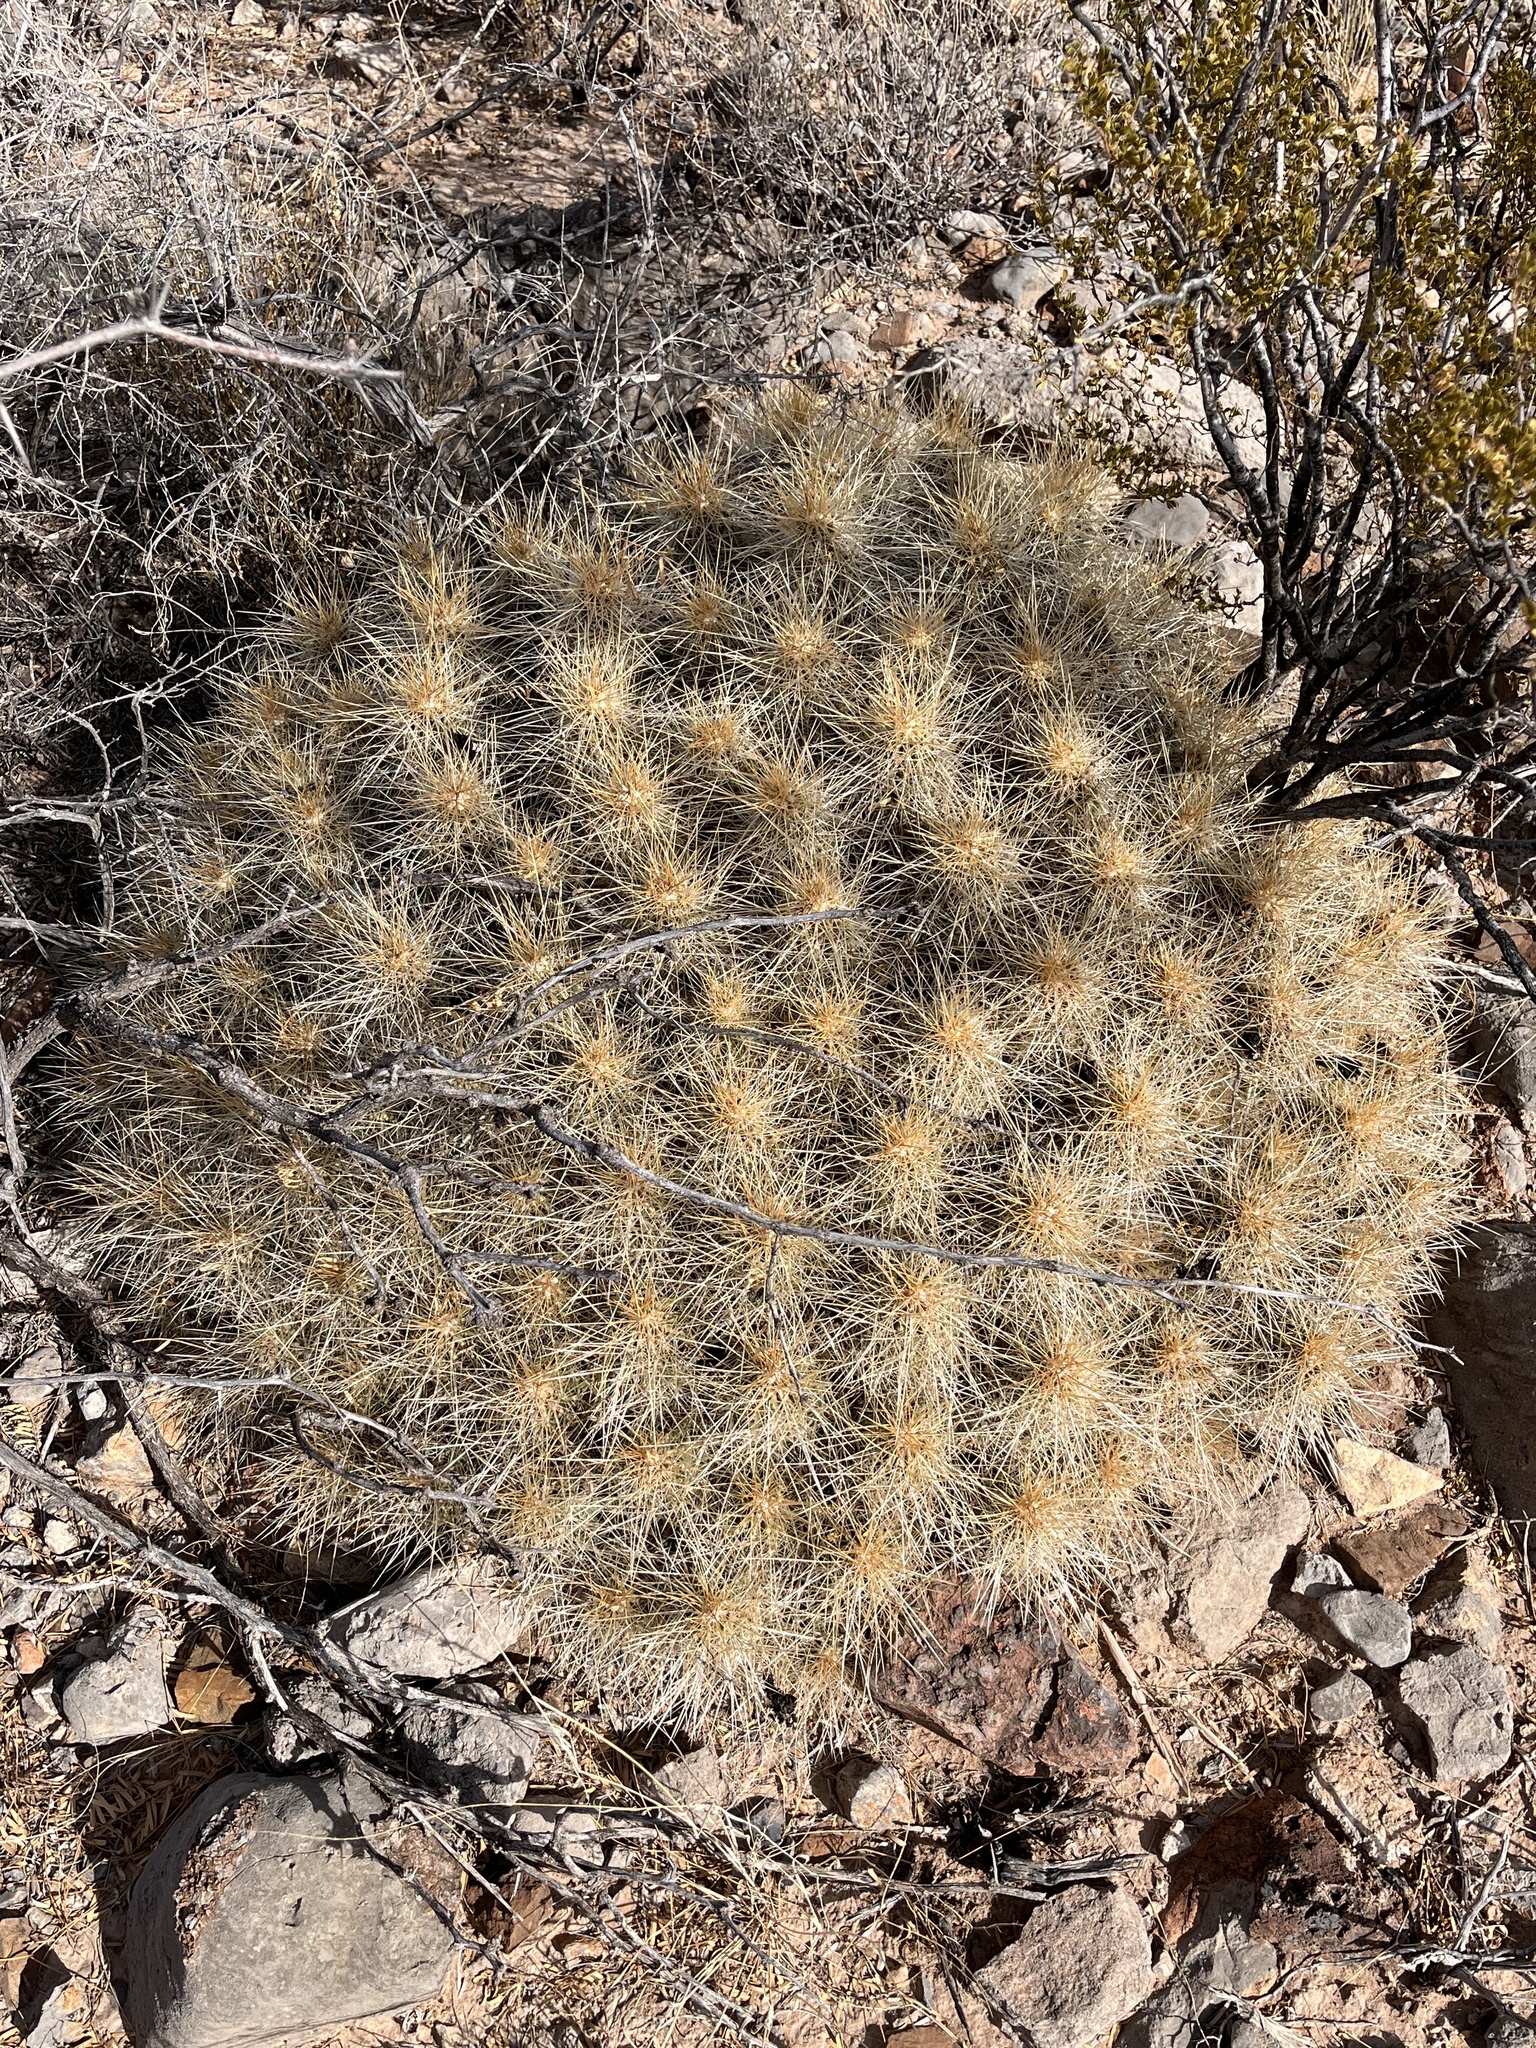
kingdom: Plantae
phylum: Tracheophyta
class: Magnoliopsida
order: Caryophyllales
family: Cactaceae
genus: Echinocereus
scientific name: Echinocereus stramineus
